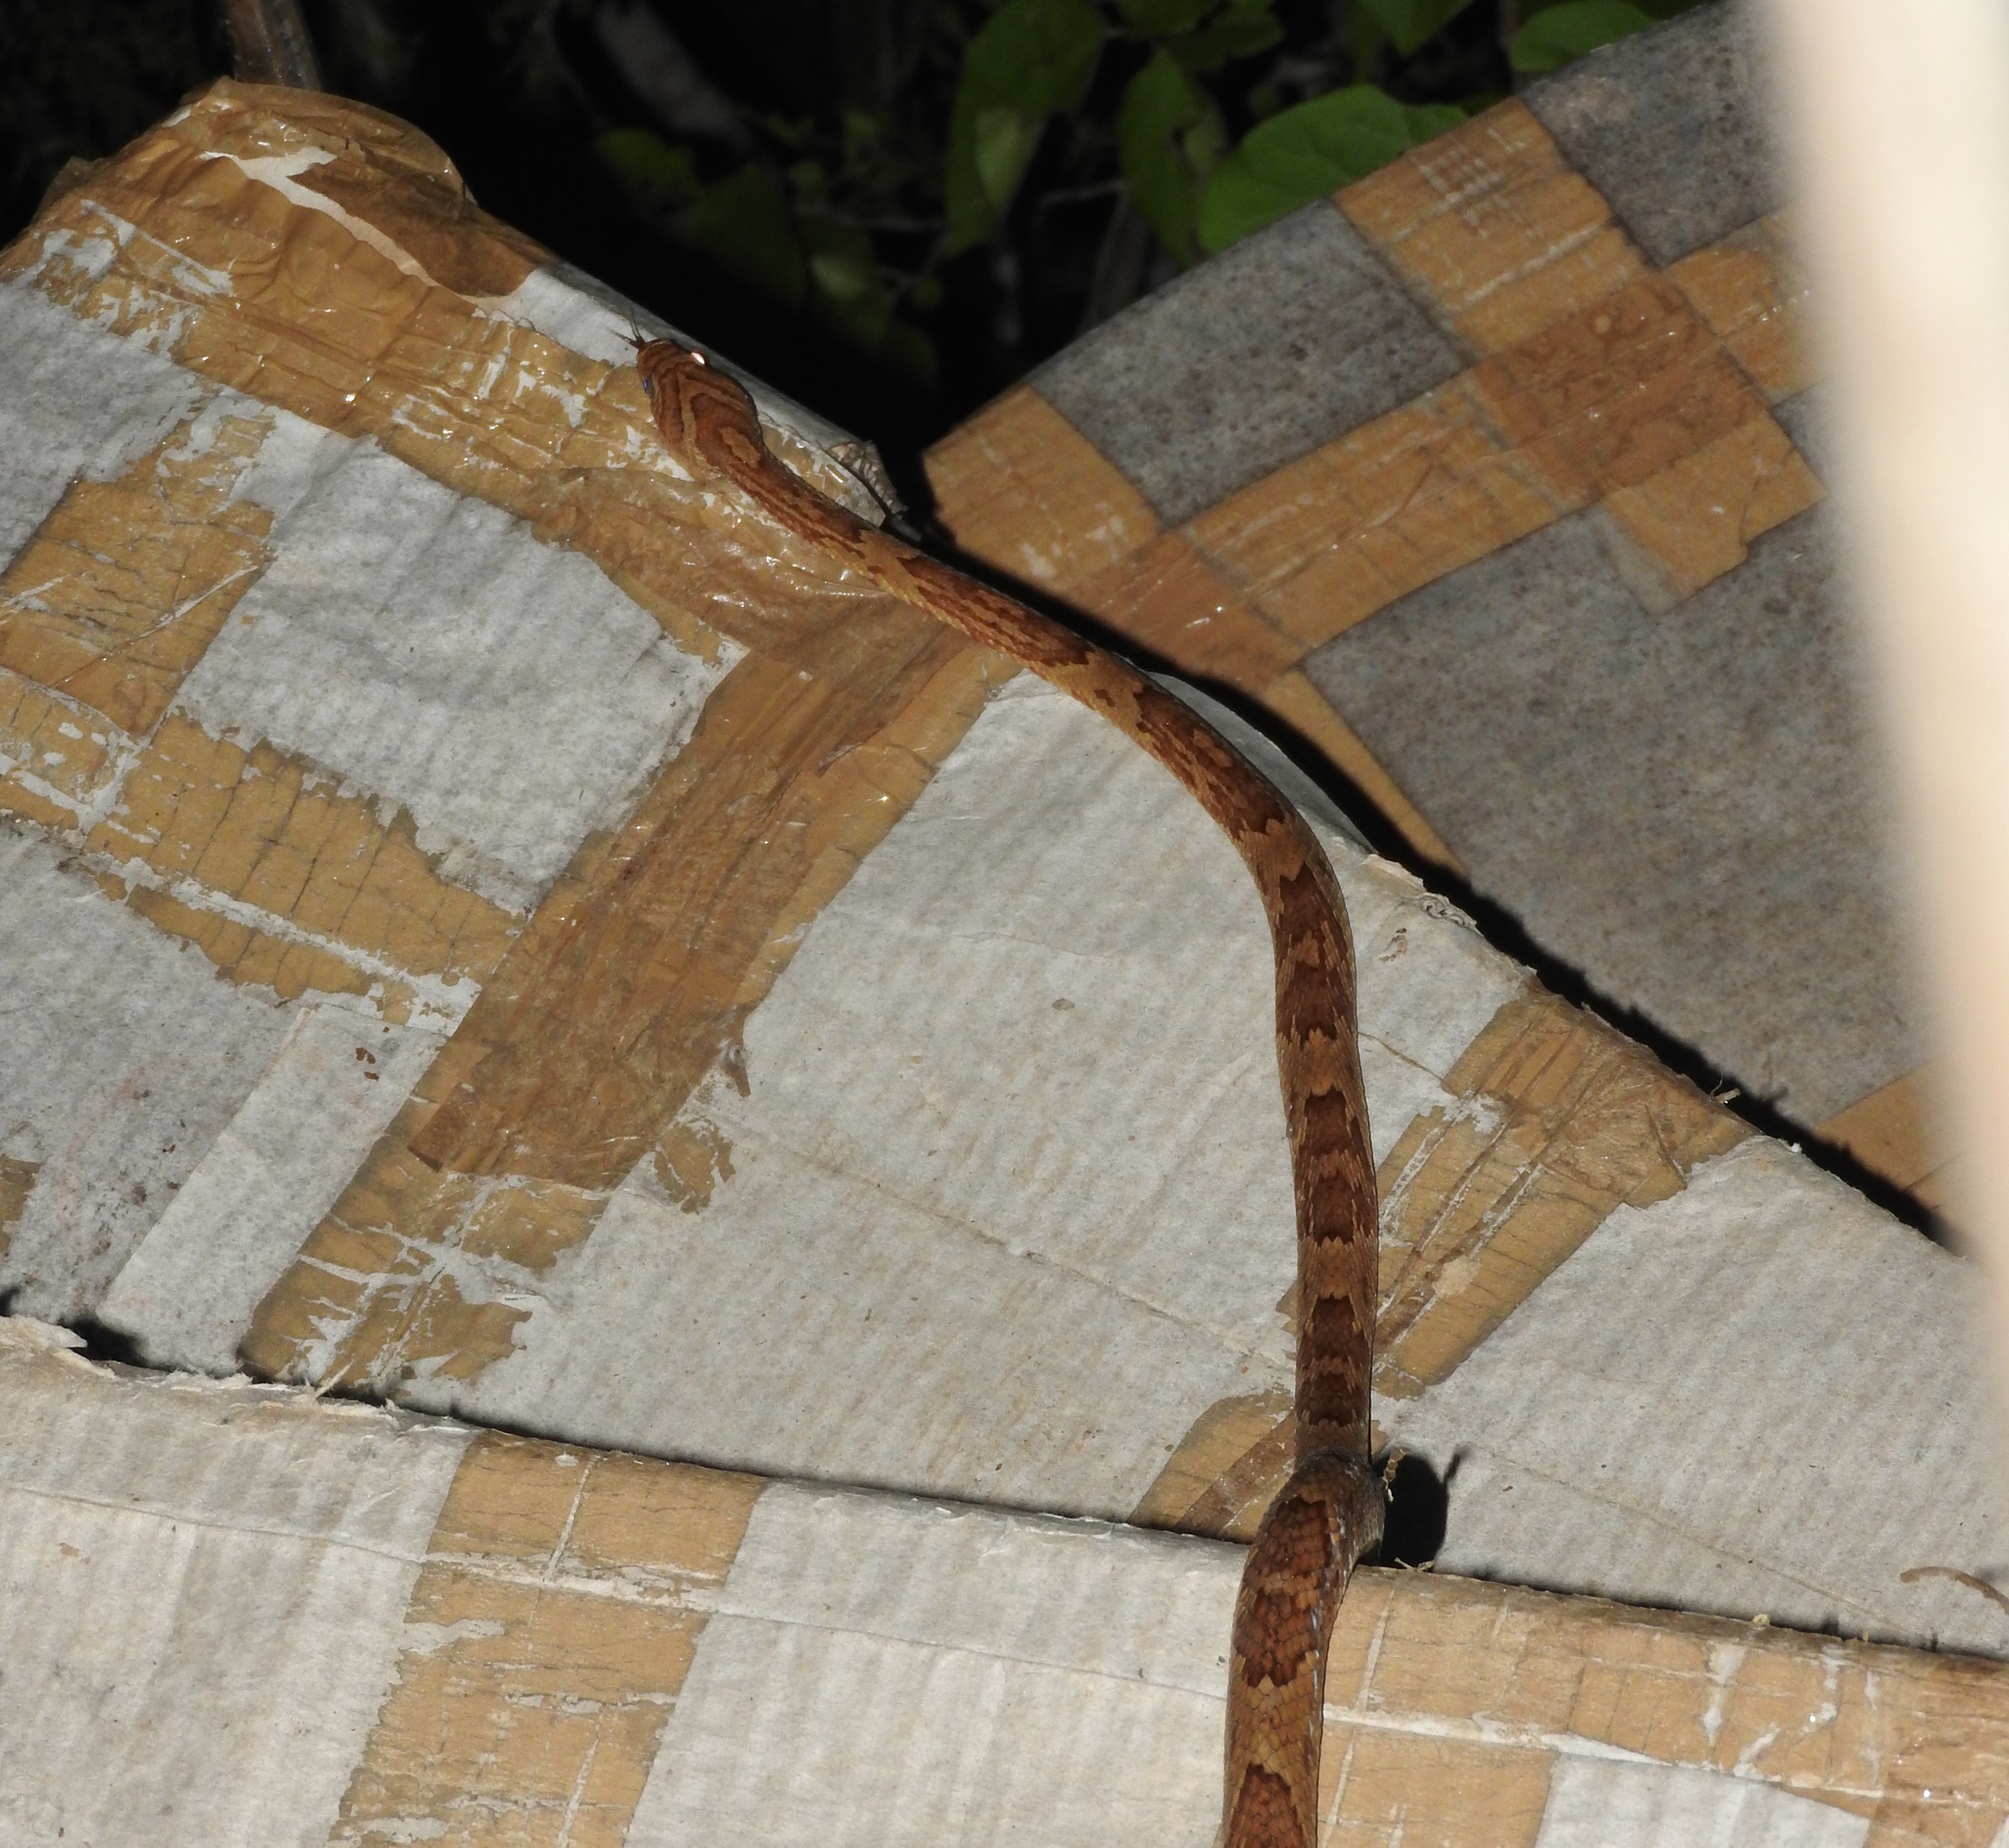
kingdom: Animalia
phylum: Chordata
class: Squamata
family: Colubridae
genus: Trimorphodon
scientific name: Trimorphodon paucimaculatus
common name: Sinaloan lyresnake
